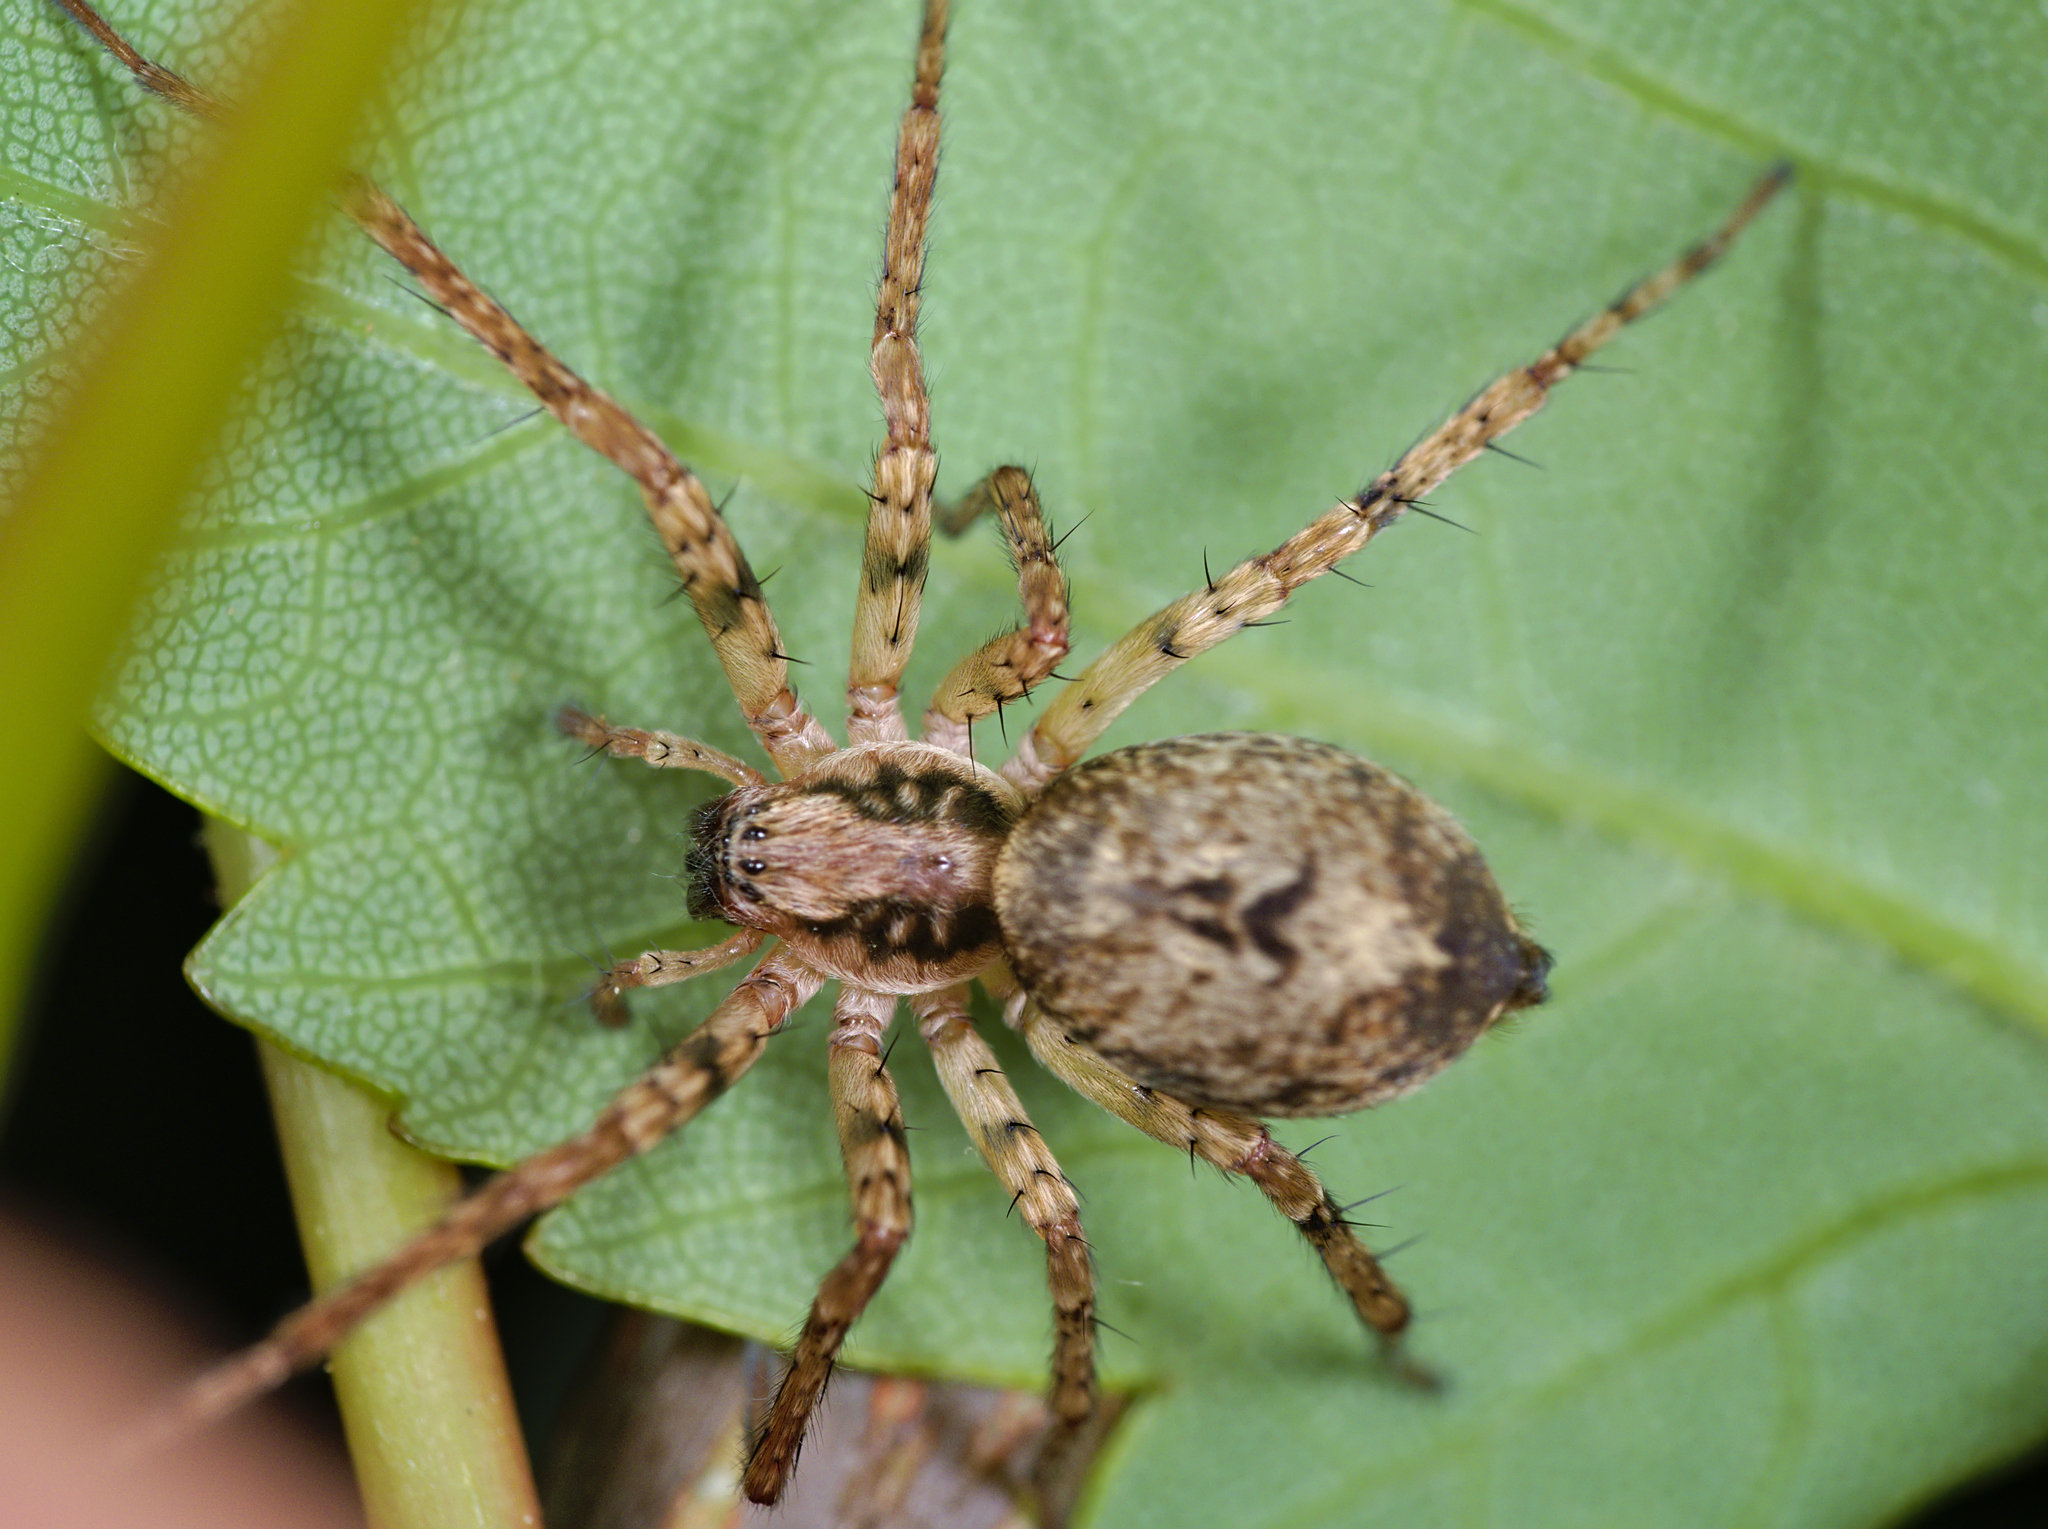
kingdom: Animalia
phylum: Arthropoda
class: Arachnida
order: Araneae
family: Anyphaenidae
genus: Anyphaena
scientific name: Anyphaena accentuata
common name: Buzzing spider
